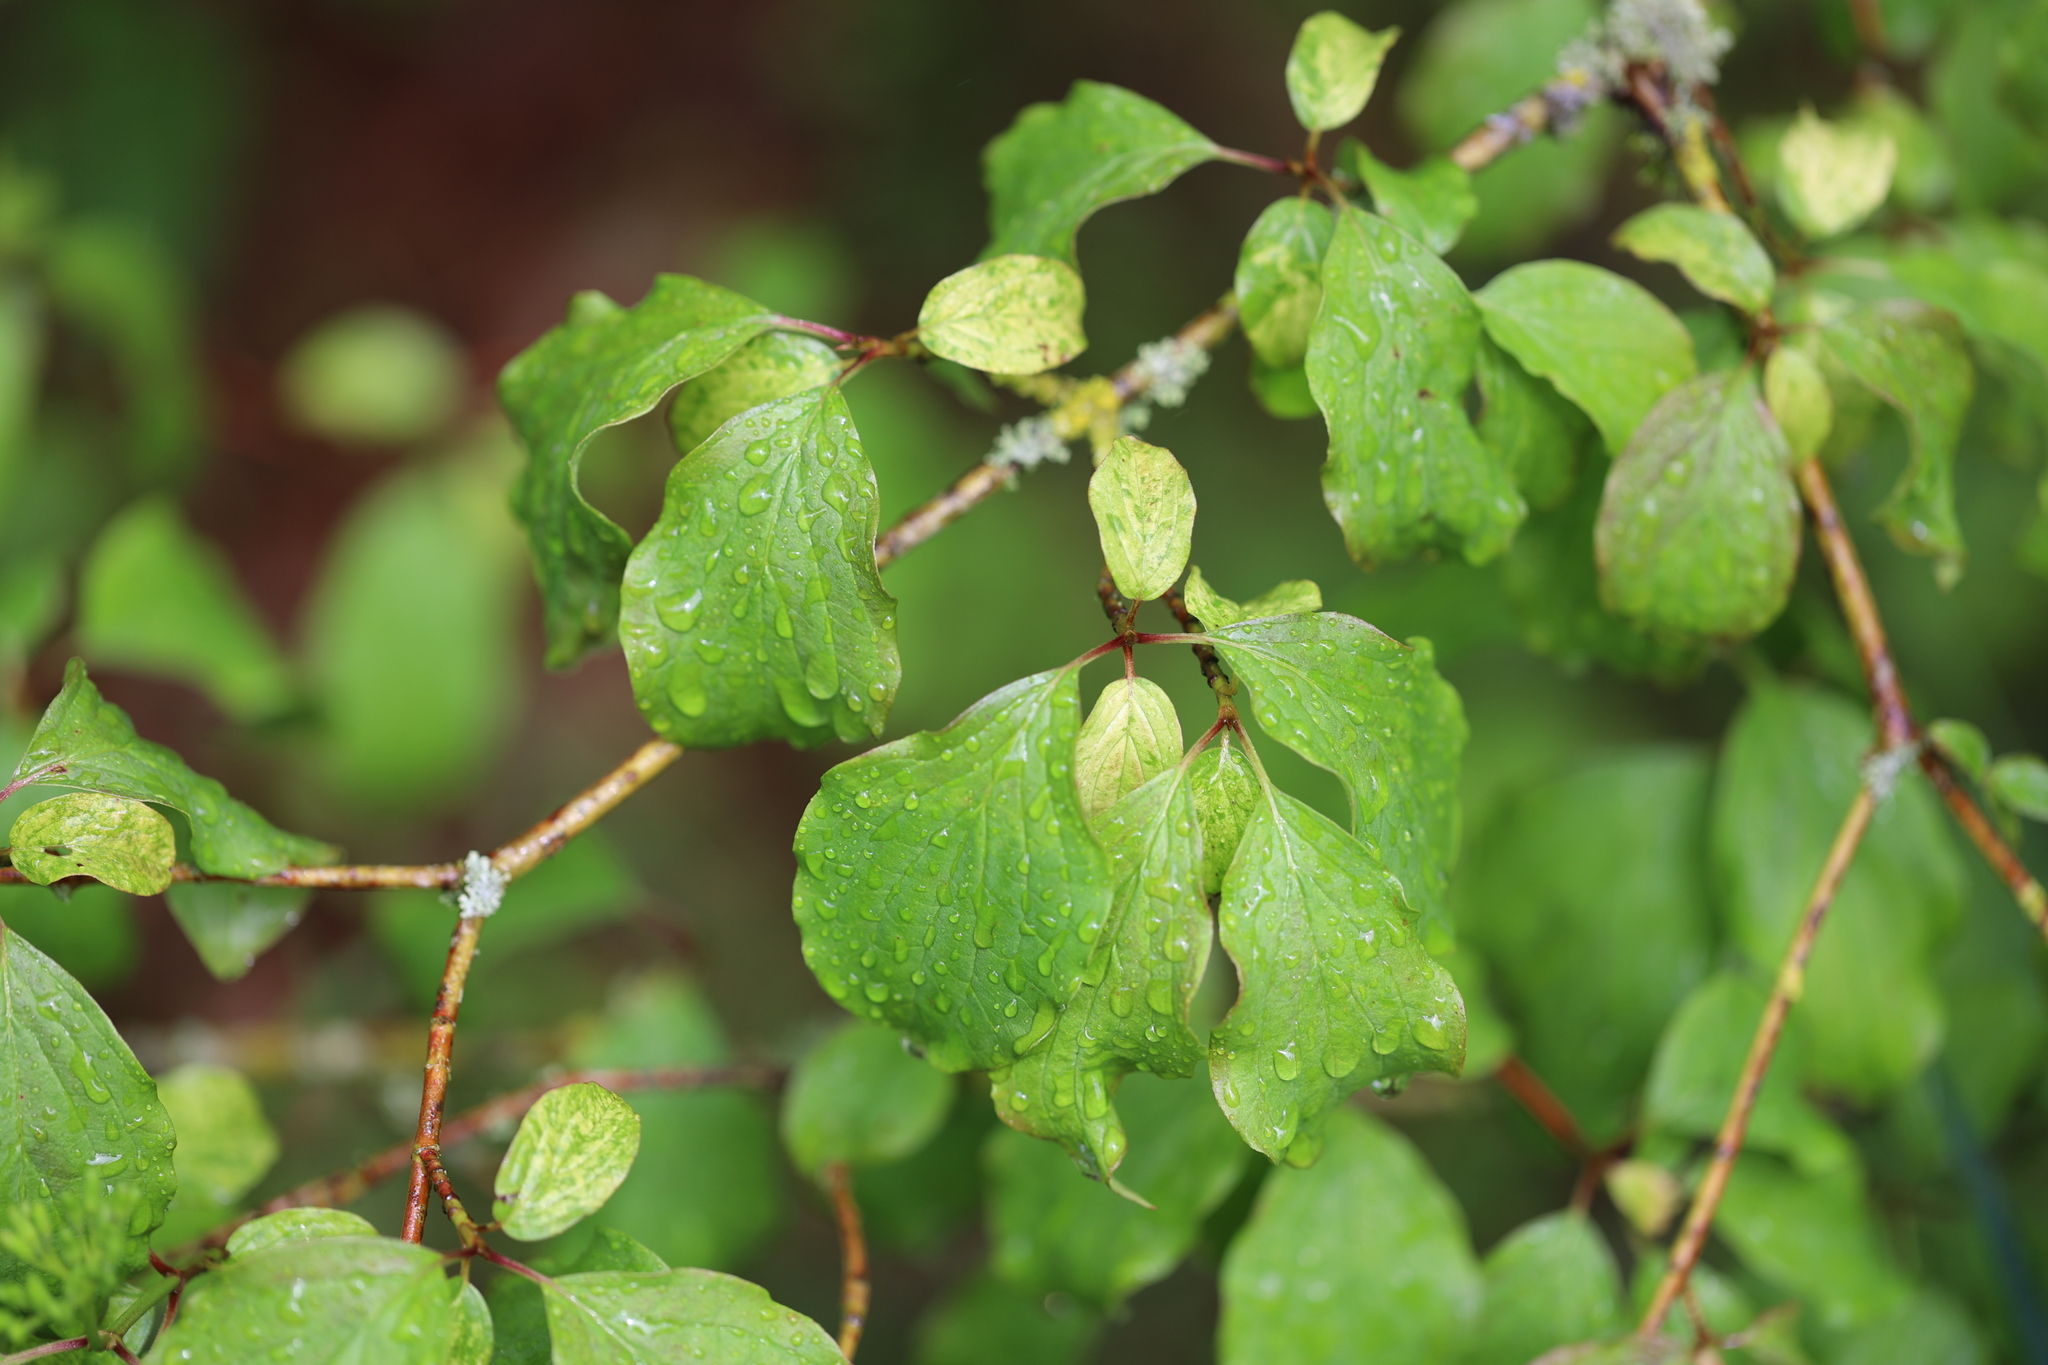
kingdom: Plantae
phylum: Tracheophyta
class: Magnoliopsida
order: Cornales
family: Cornaceae
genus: Cornus
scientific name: Cornus sanguinea
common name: Dogwood
